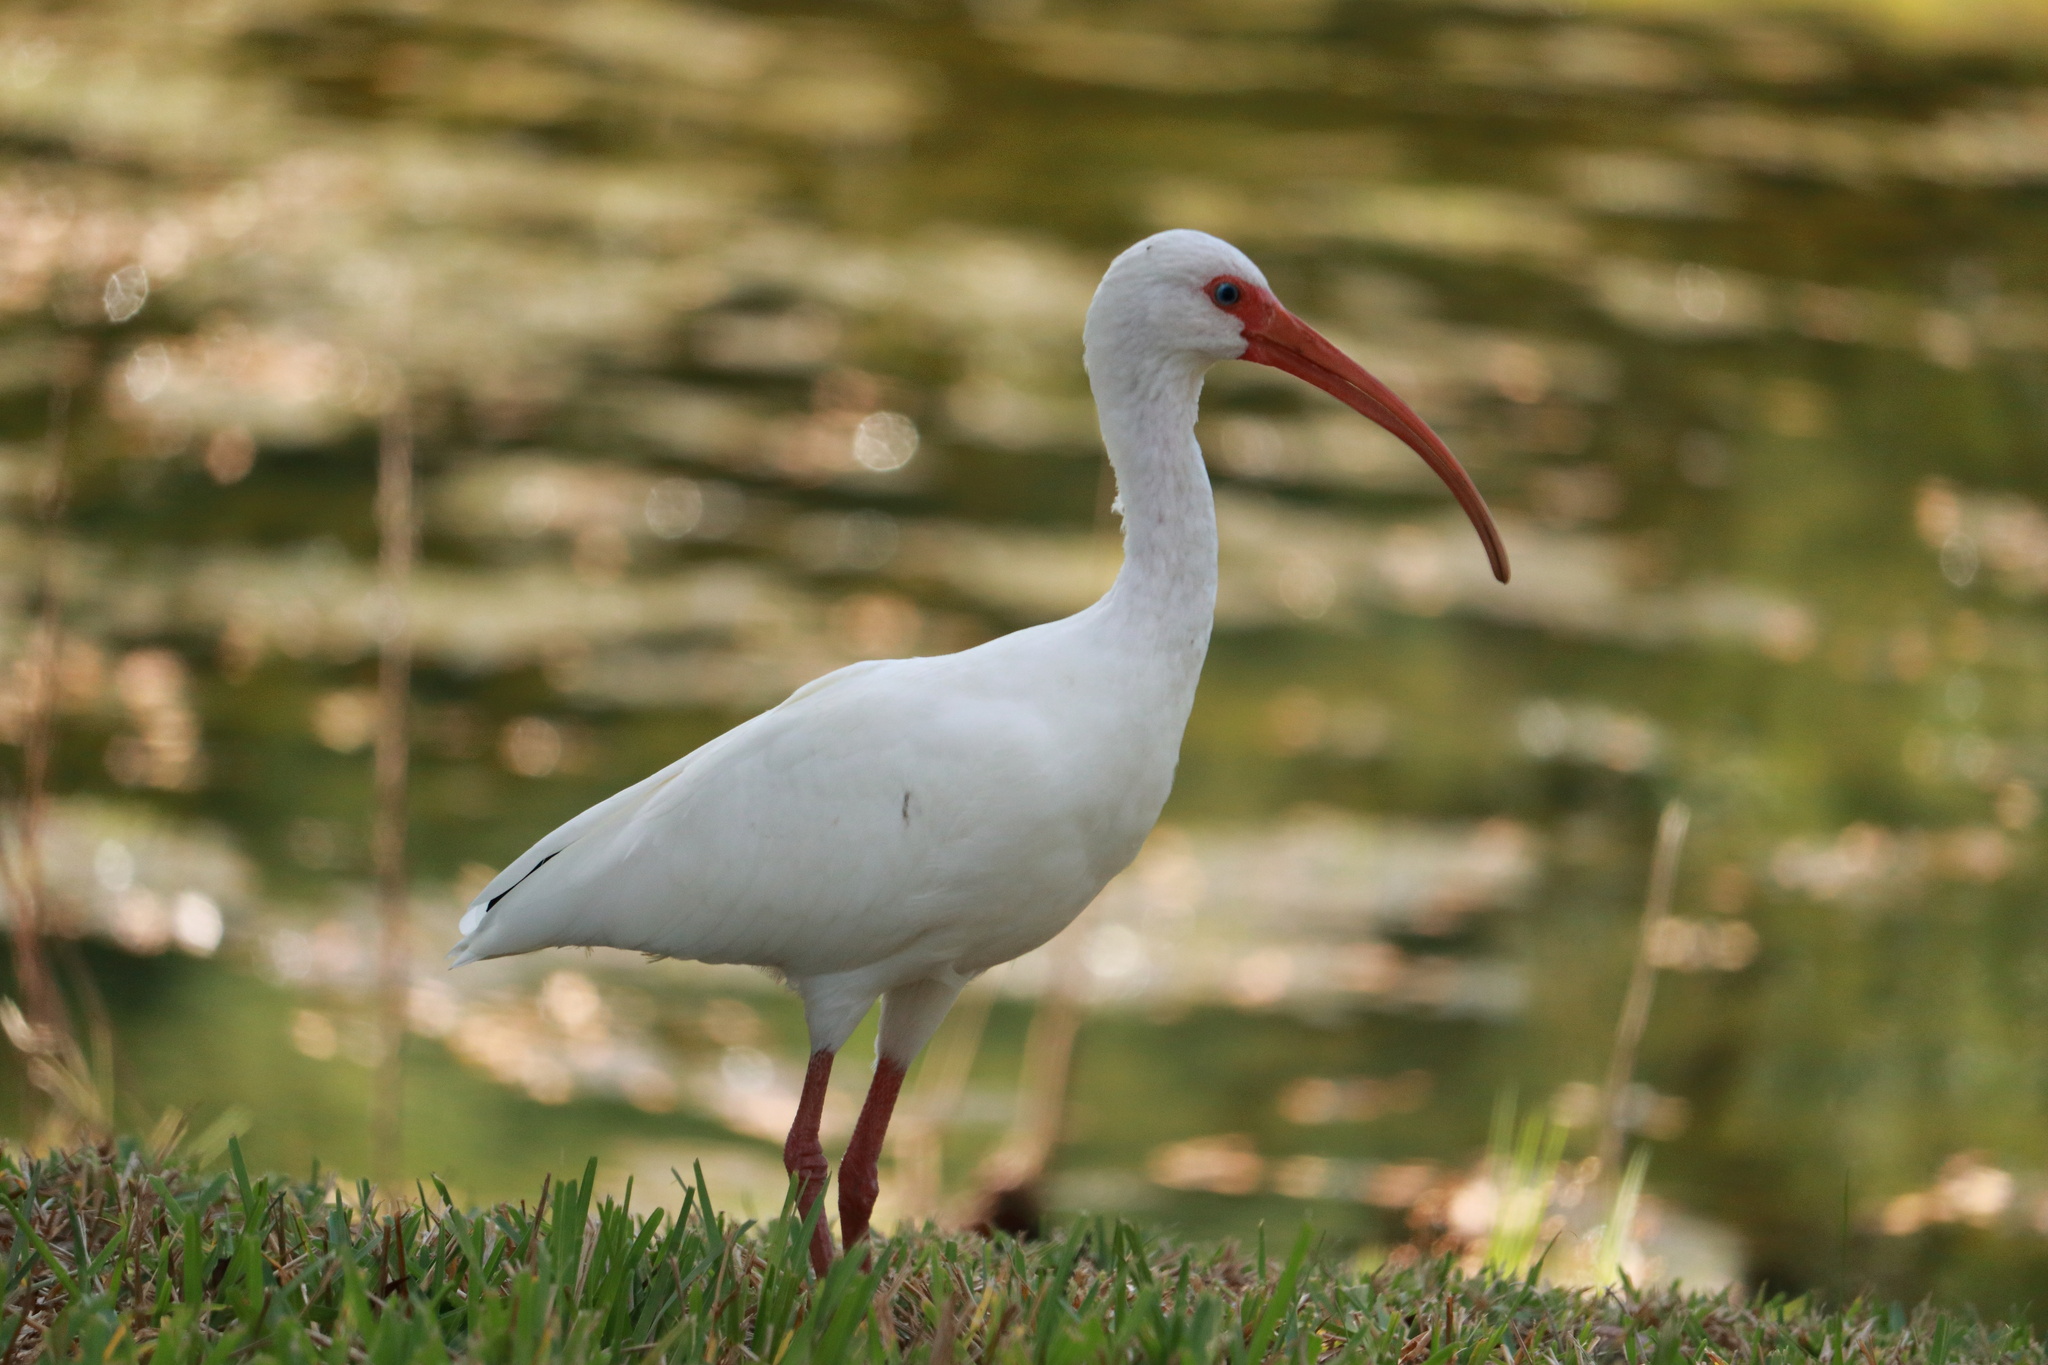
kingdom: Animalia
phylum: Chordata
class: Aves
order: Pelecaniformes
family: Threskiornithidae
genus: Eudocimus
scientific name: Eudocimus albus
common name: White ibis
